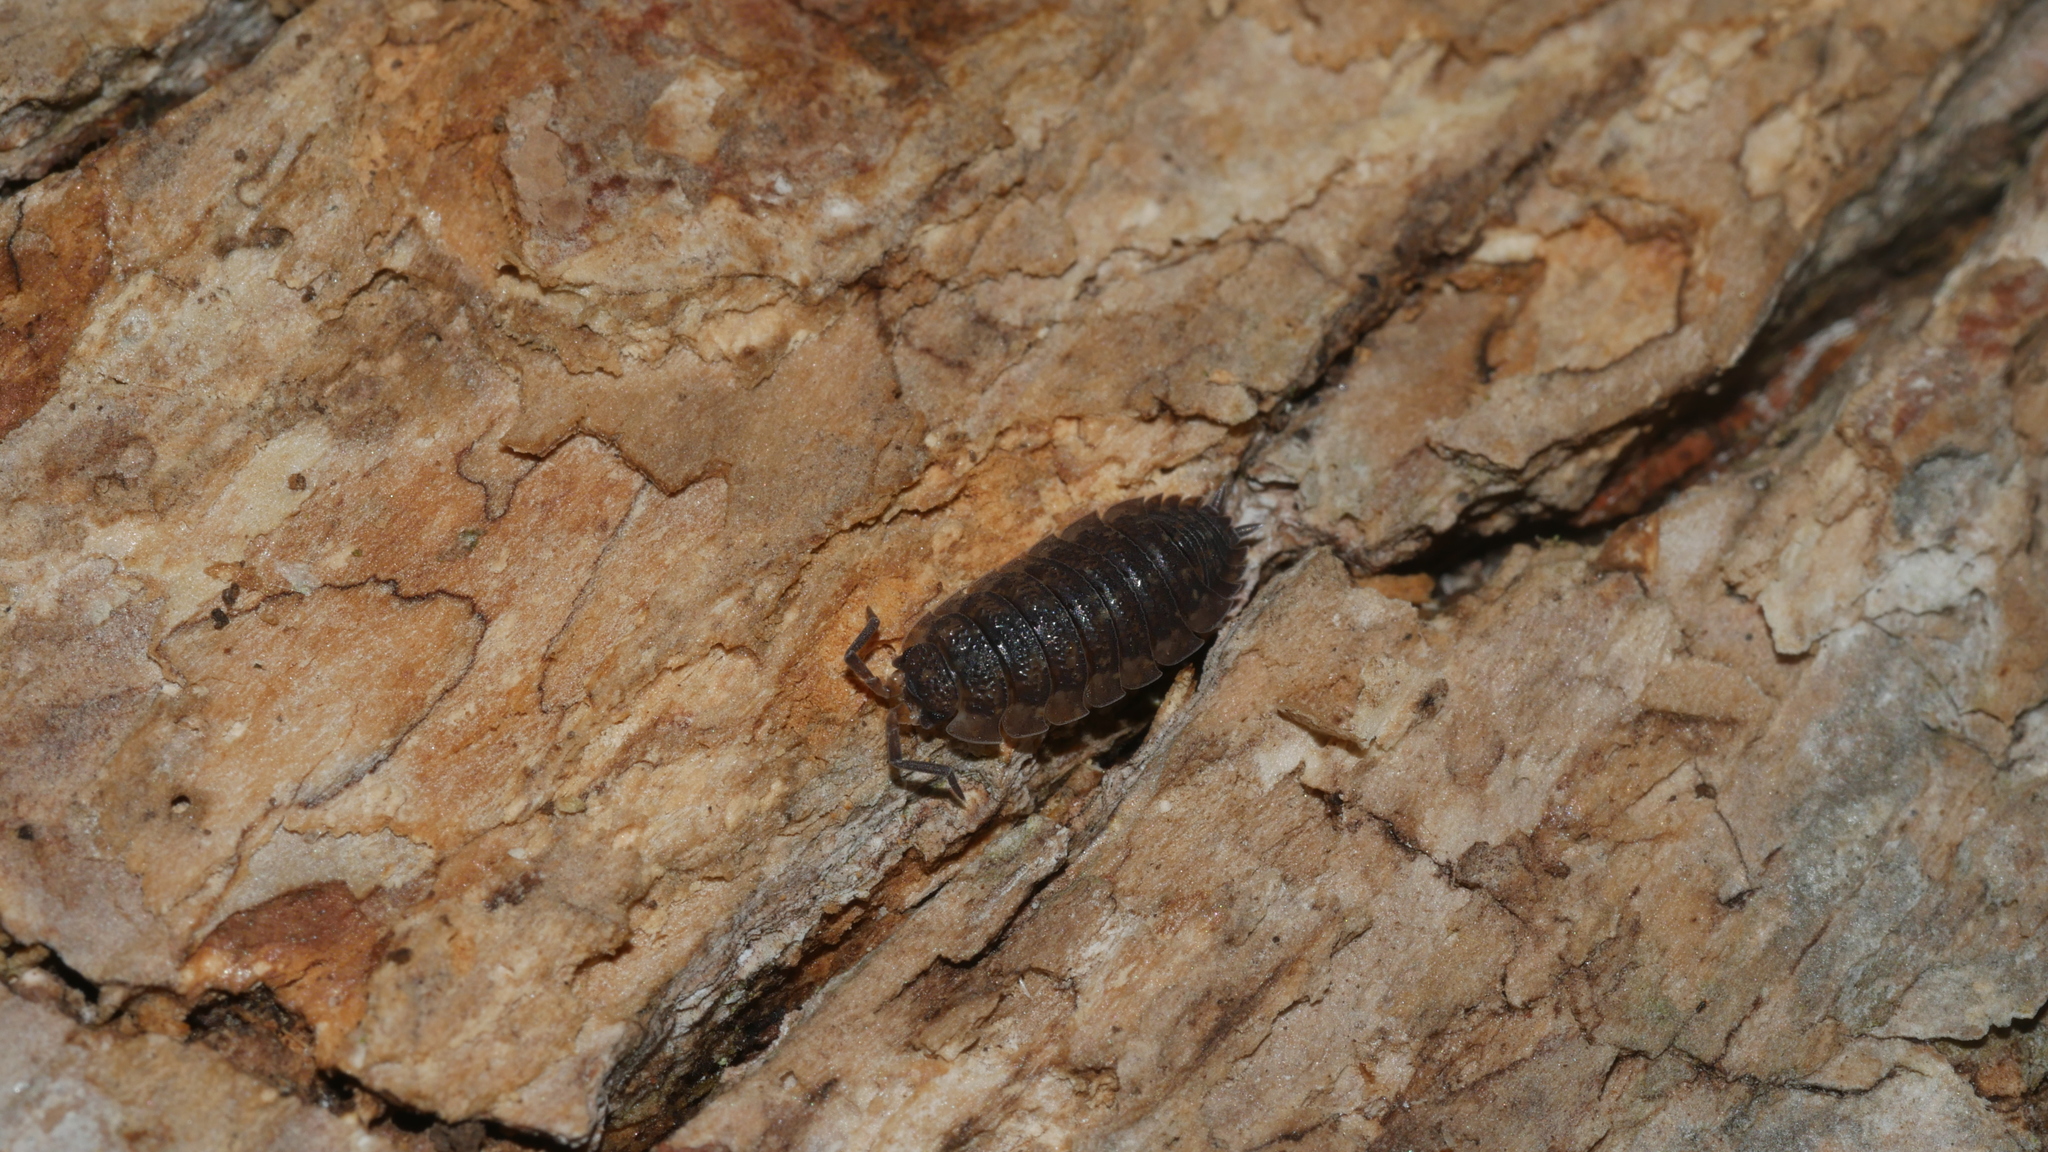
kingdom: Animalia
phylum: Arthropoda
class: Malacostraca
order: Isopoda
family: Porcellionidae
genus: Porcellio
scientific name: Porcellio scaber
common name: Common rough woodlouse
